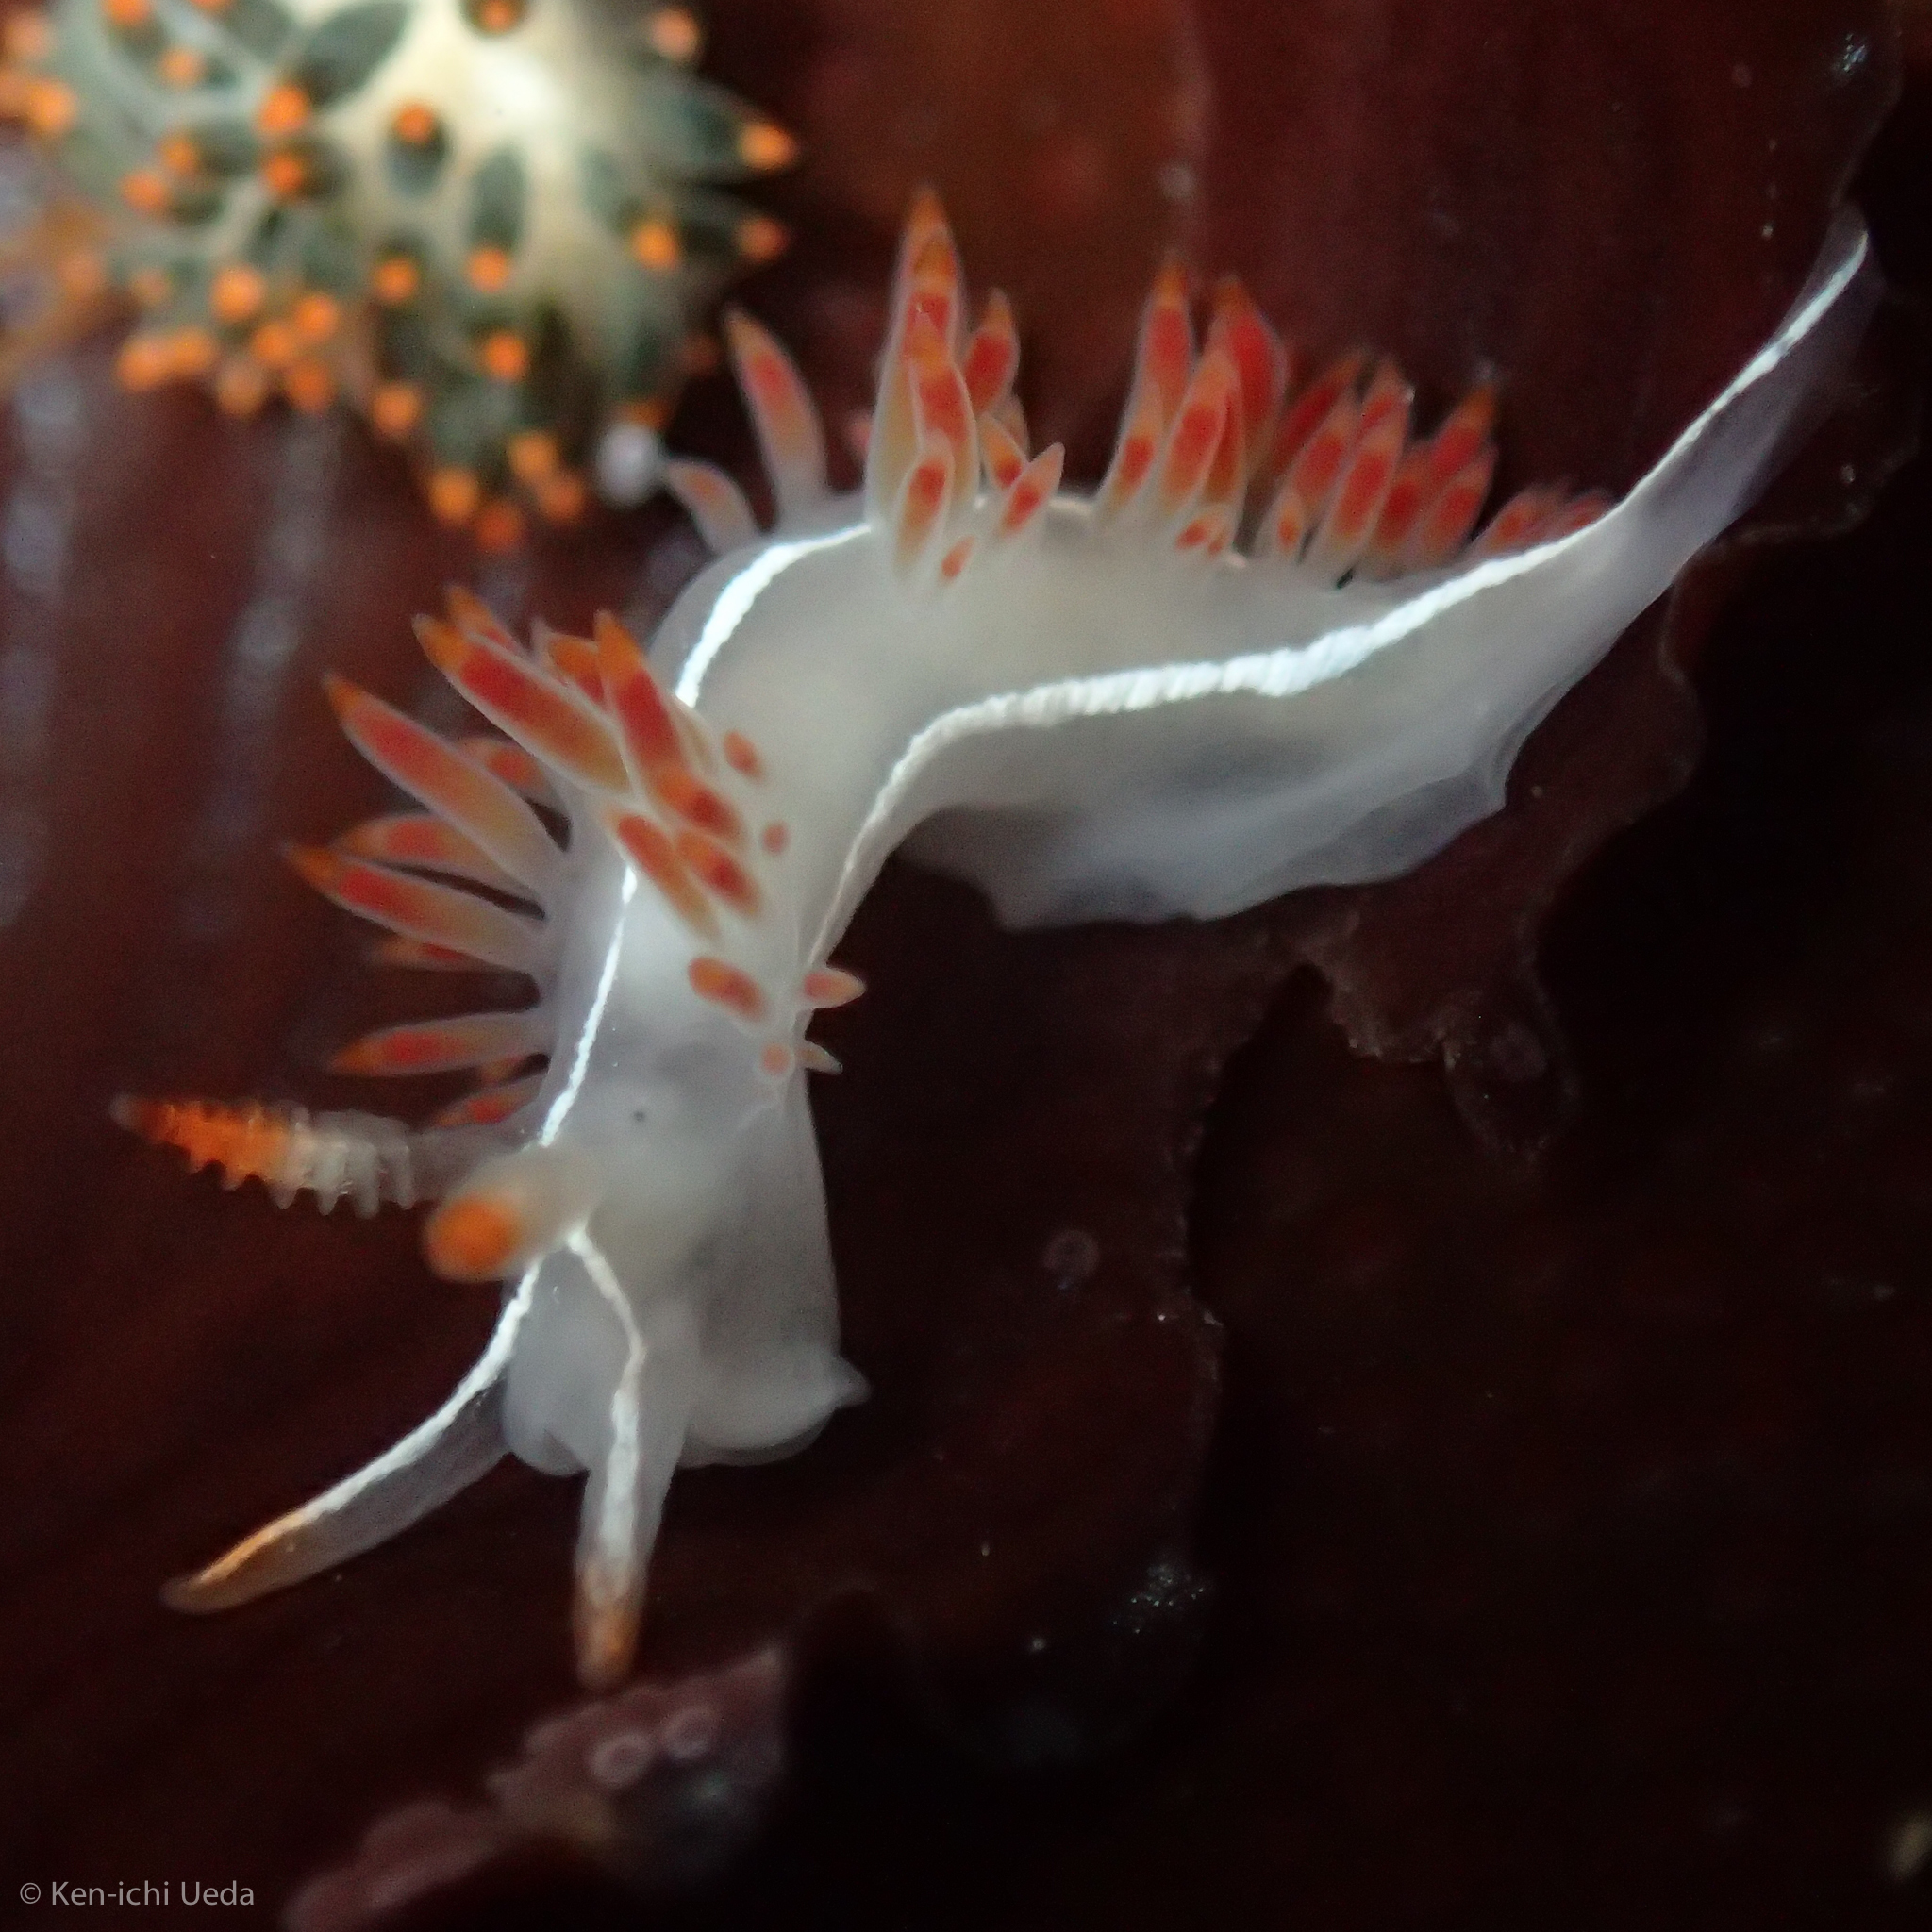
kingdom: Animalia
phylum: Mollusca
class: Gastropoda
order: Nudibranchia
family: Coryphellidae
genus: Coryphella
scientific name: Coryphella trilineata
